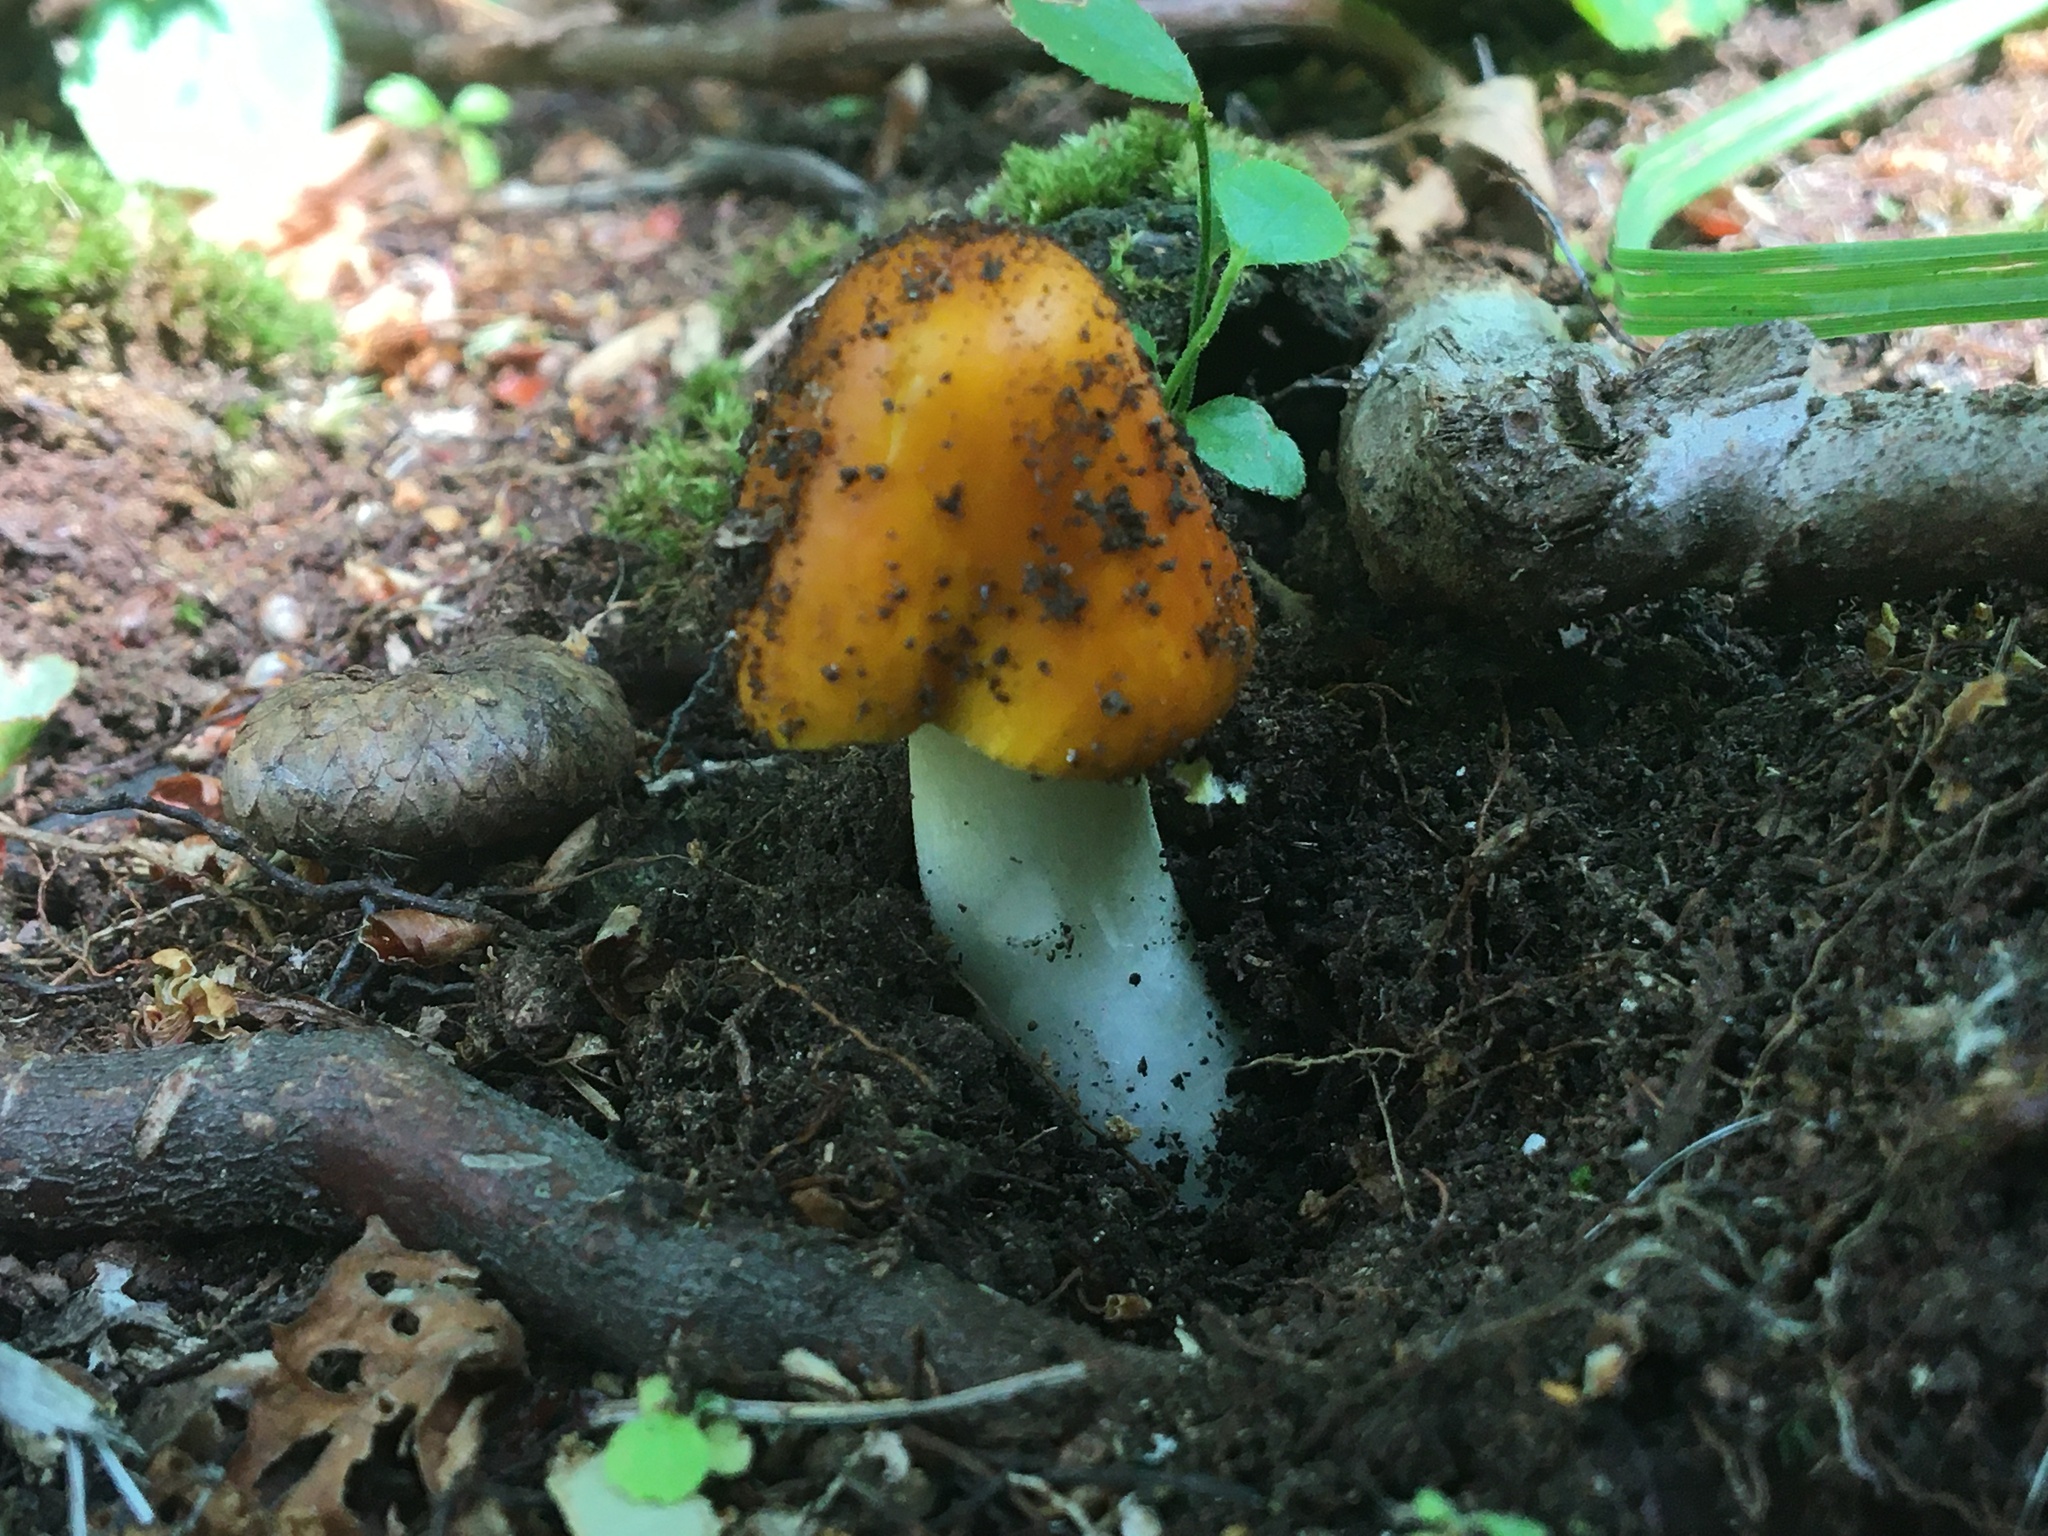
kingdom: Fungi
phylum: Basidiomycota
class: Agaricomycetes
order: Agaricales
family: Amanitaceae
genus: Amanita
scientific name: Amanita
